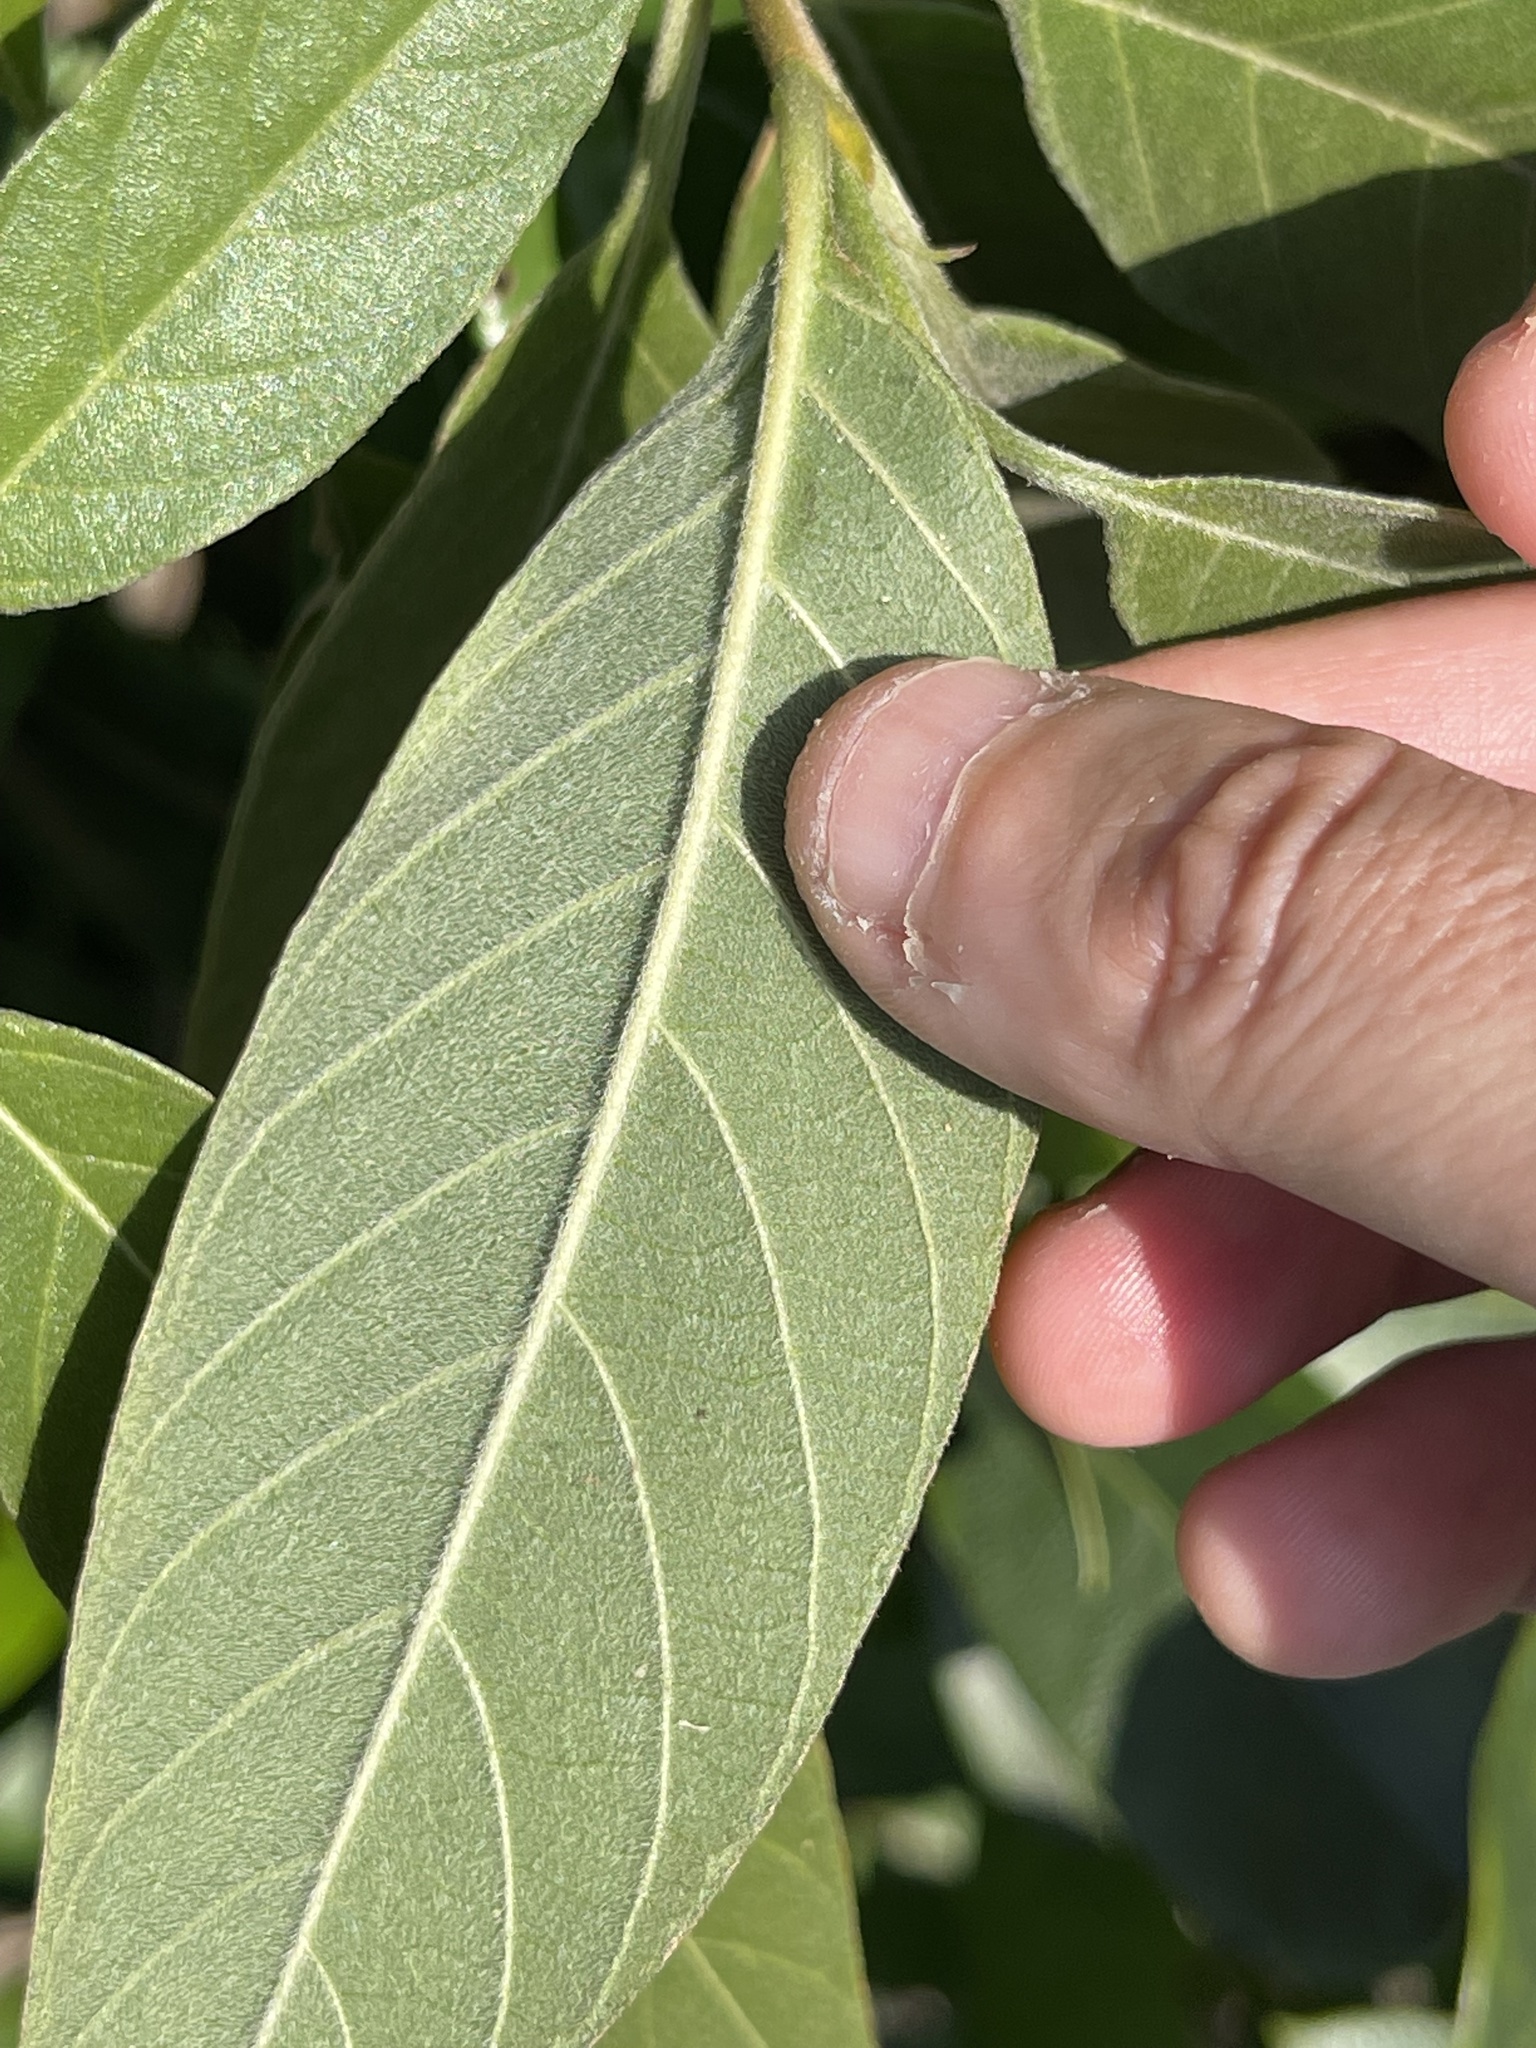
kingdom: Plantae
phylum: Tracheophyta
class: Magnoliopsida
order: Gentianales
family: Rubiaceae
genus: Tarenna
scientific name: Tarenna mollissima
